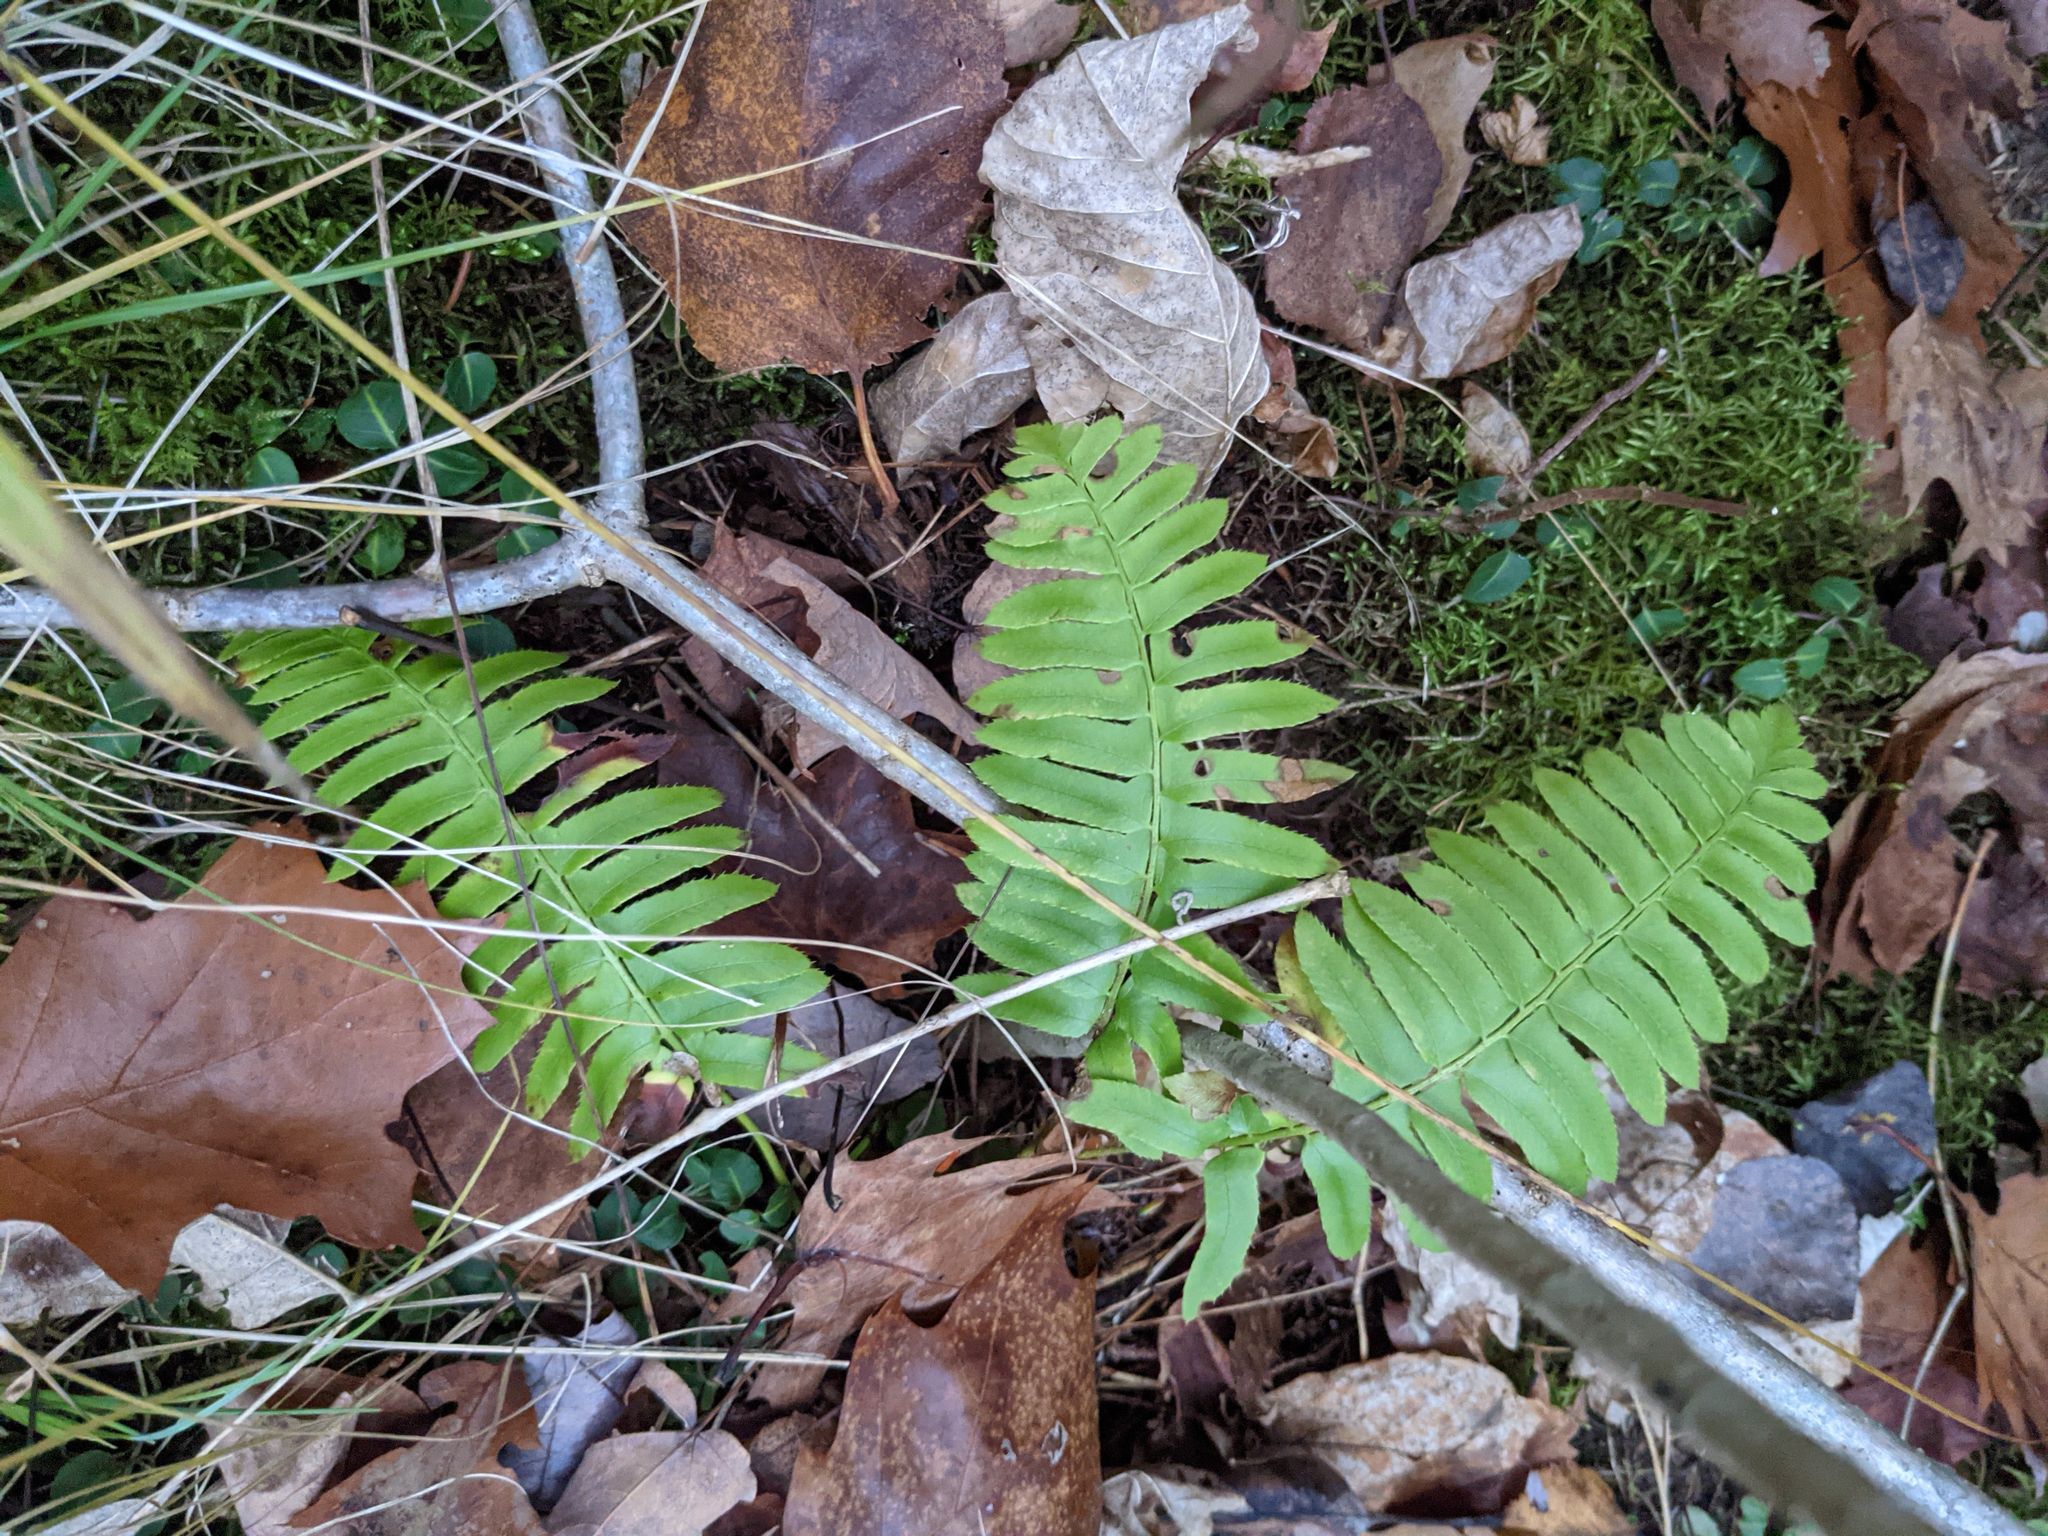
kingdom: Plantae
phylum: Tracheophyta
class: Polypodiopsida
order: Polypodiales
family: Dryopteridaceae
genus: Polystichum
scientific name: Polystichum acrostichoides
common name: Christmas fern
